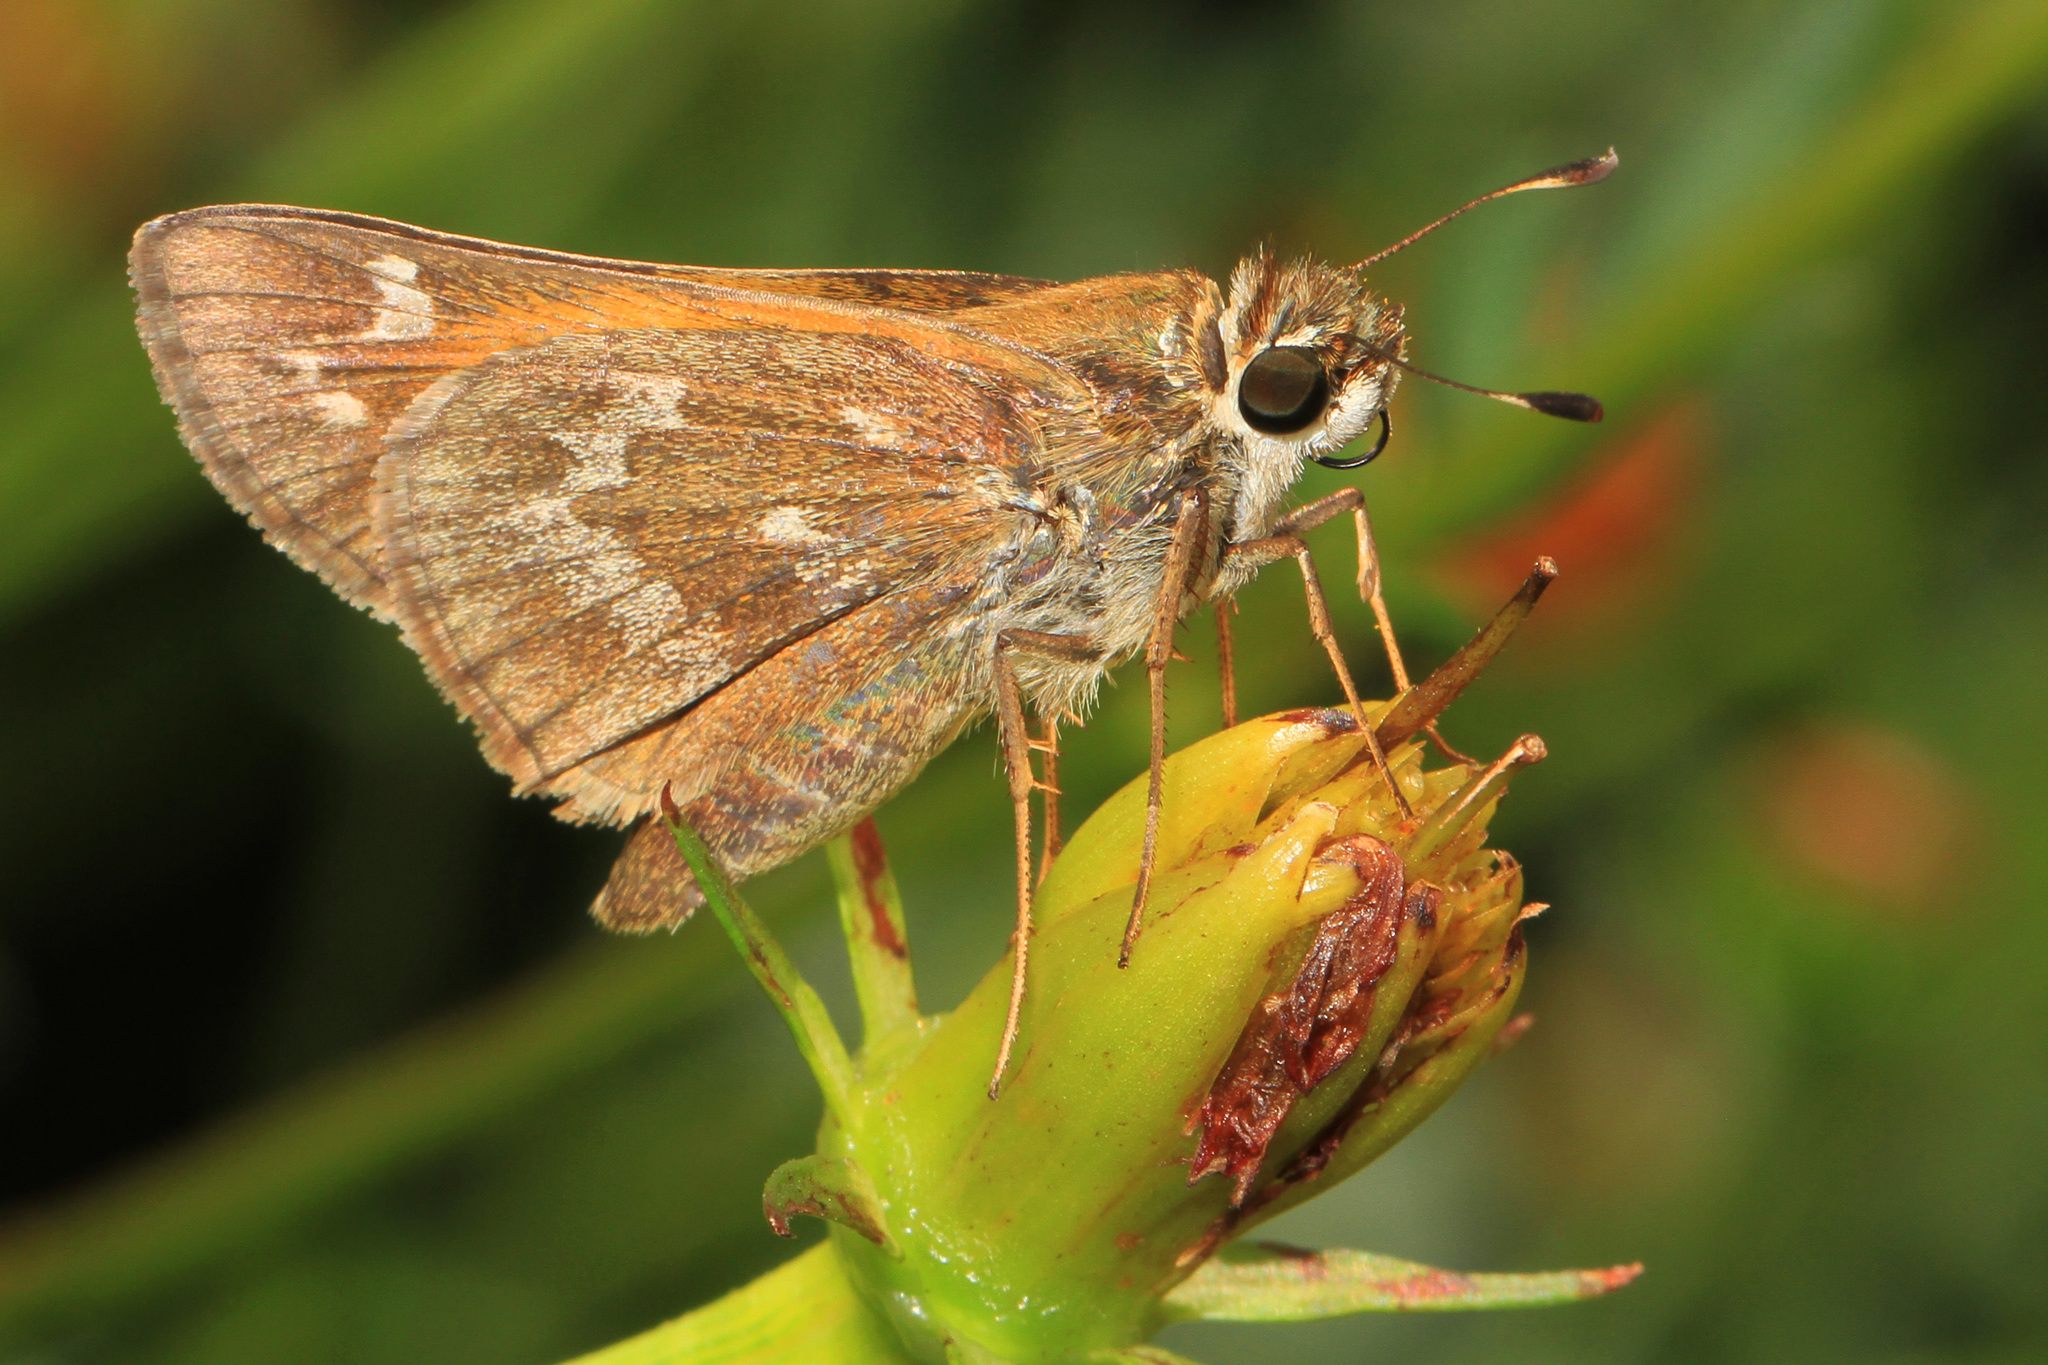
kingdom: Animalia
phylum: Arthropoda
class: Insecta
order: Lepidoptera
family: Hesperiidae
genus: Atalopedes
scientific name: Atalopedes
